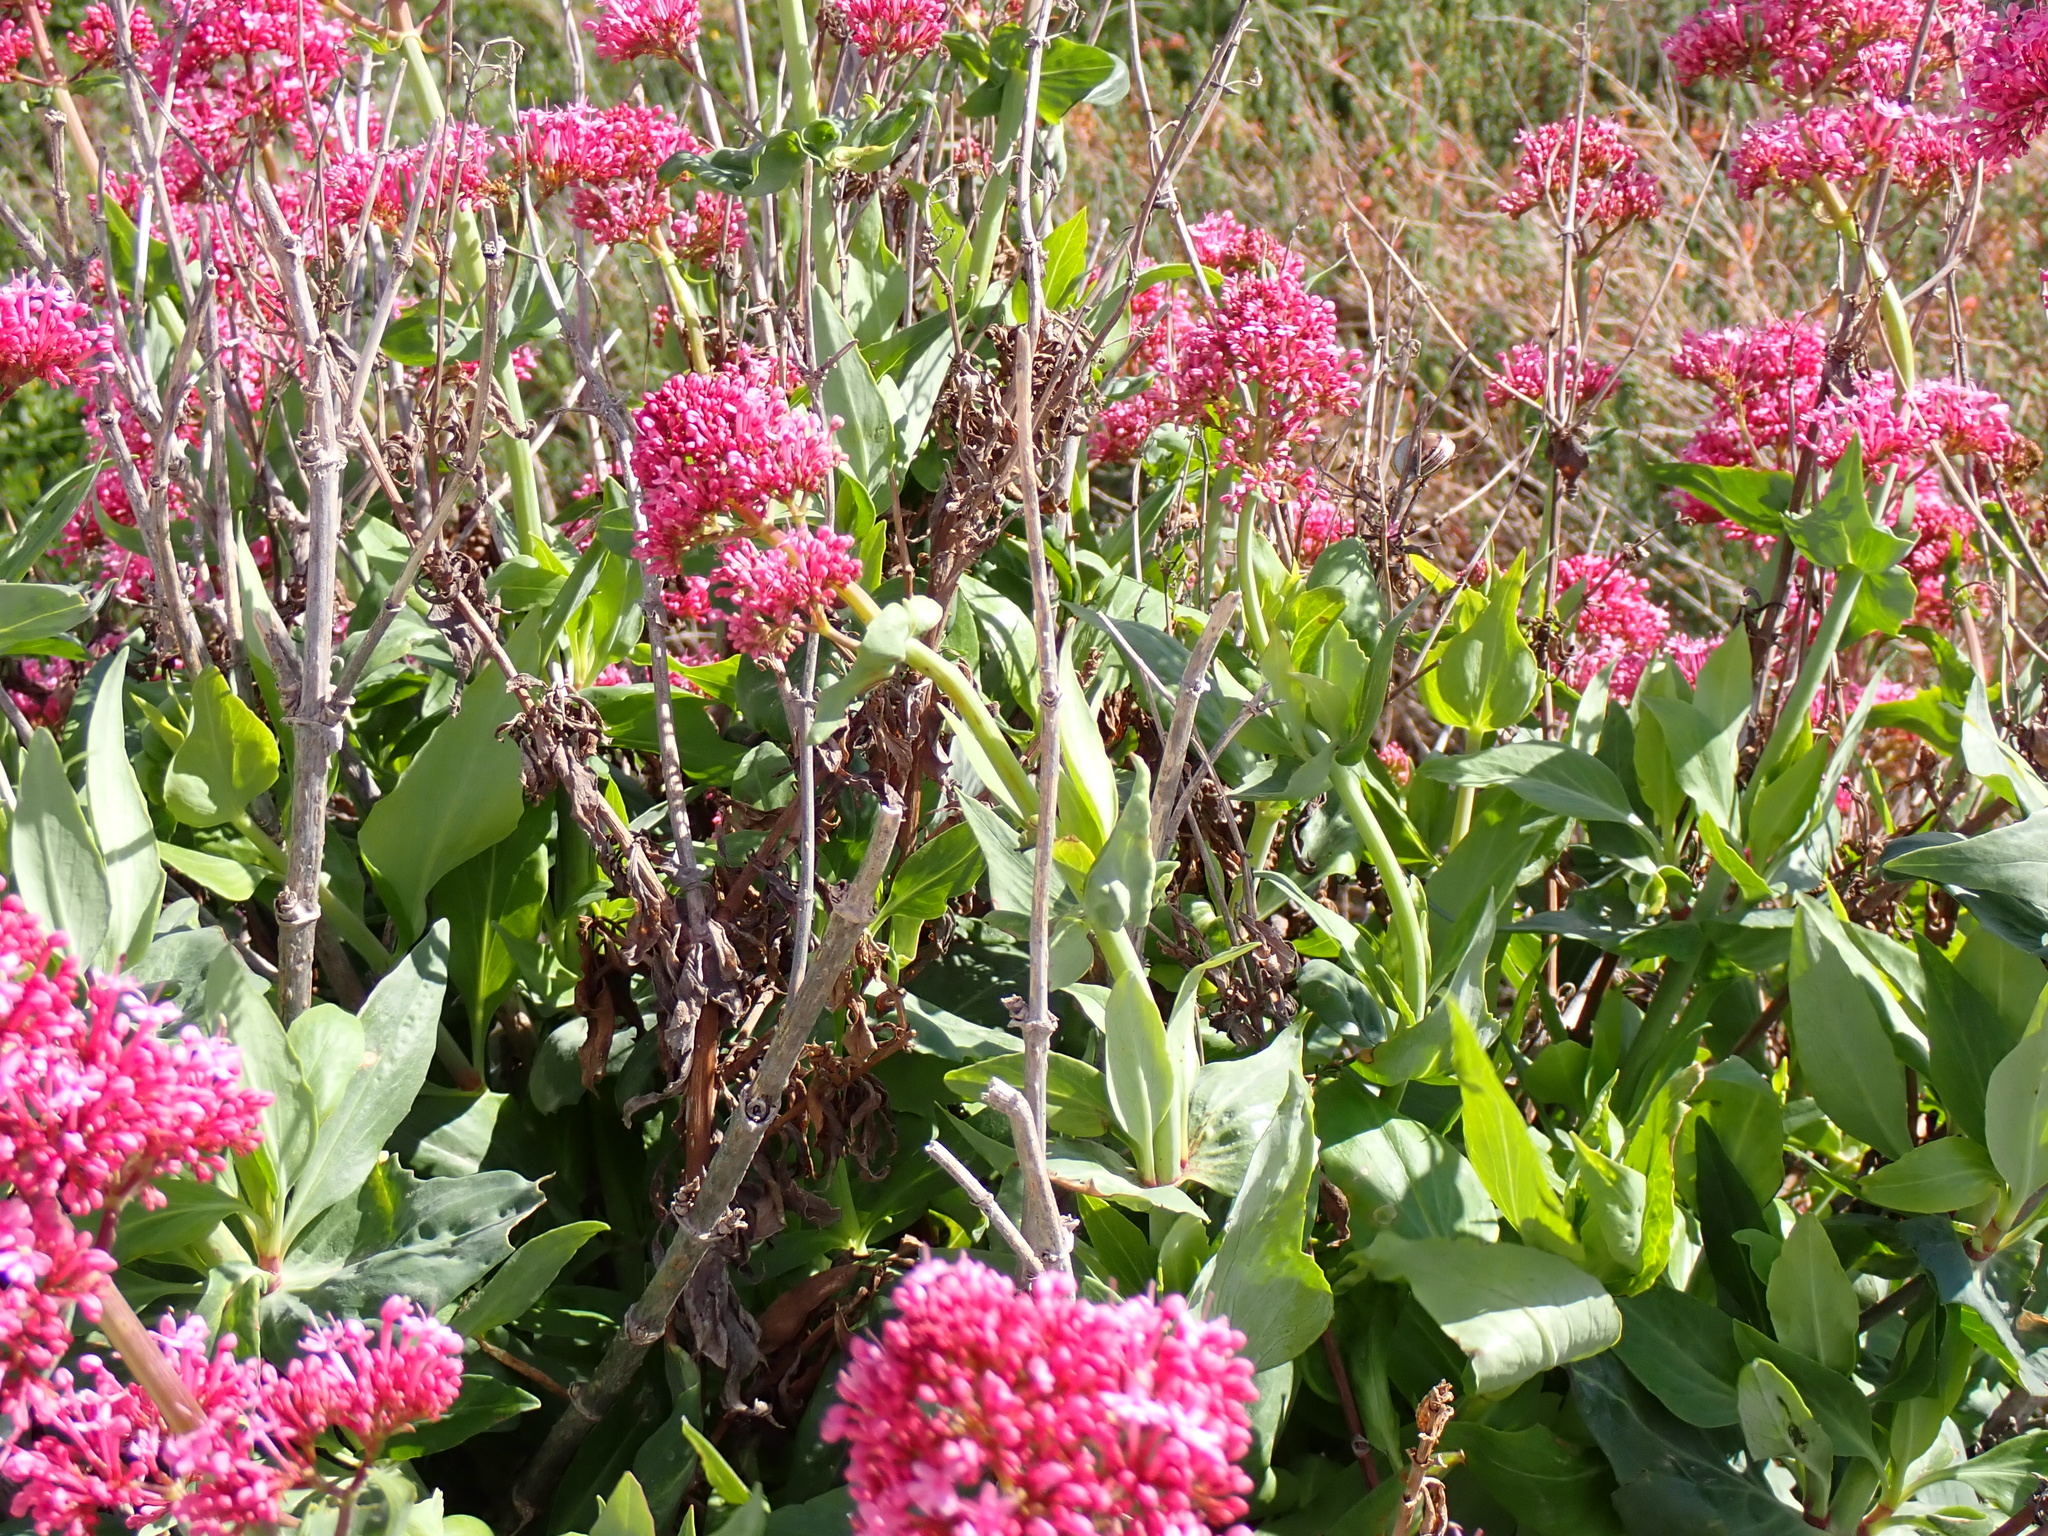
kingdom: Plantae
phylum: Tracheophyta
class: Magnoliopsida
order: Dipsacales
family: Caprifoliaceae
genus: Centranthus
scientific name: Centranthus ruber
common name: Red valerian
